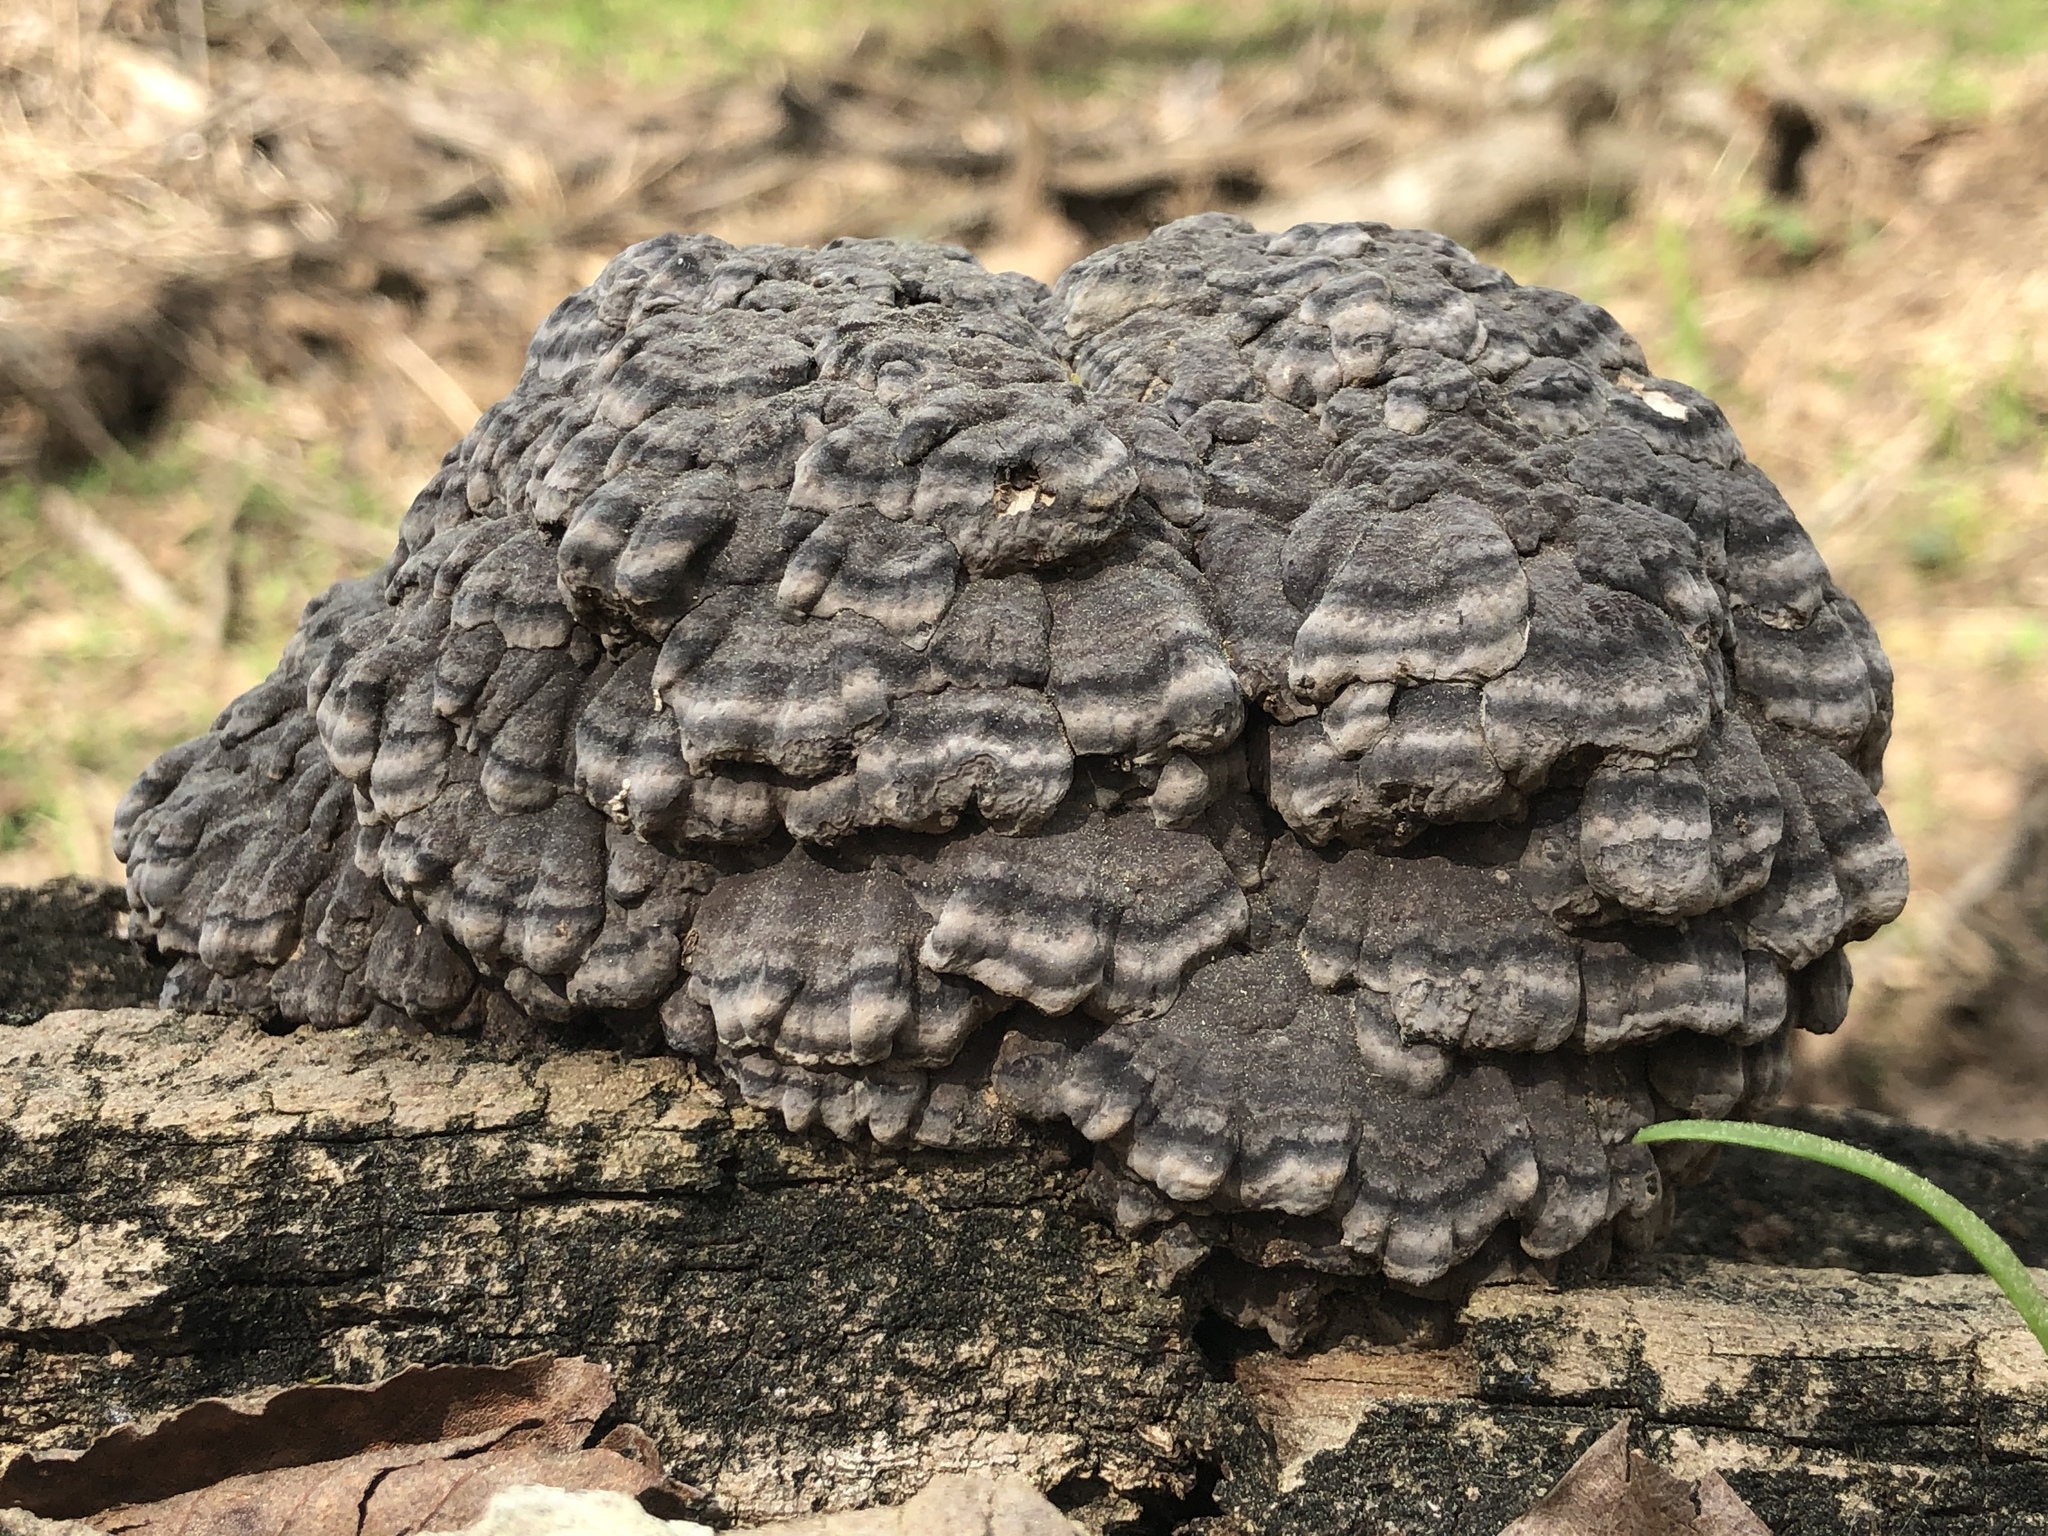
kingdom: Fungi
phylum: Basidiomycota
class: Agaricomycetes
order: Polyporales
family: Polyporaceae
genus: Globifomes
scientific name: Globifomes graveolens
